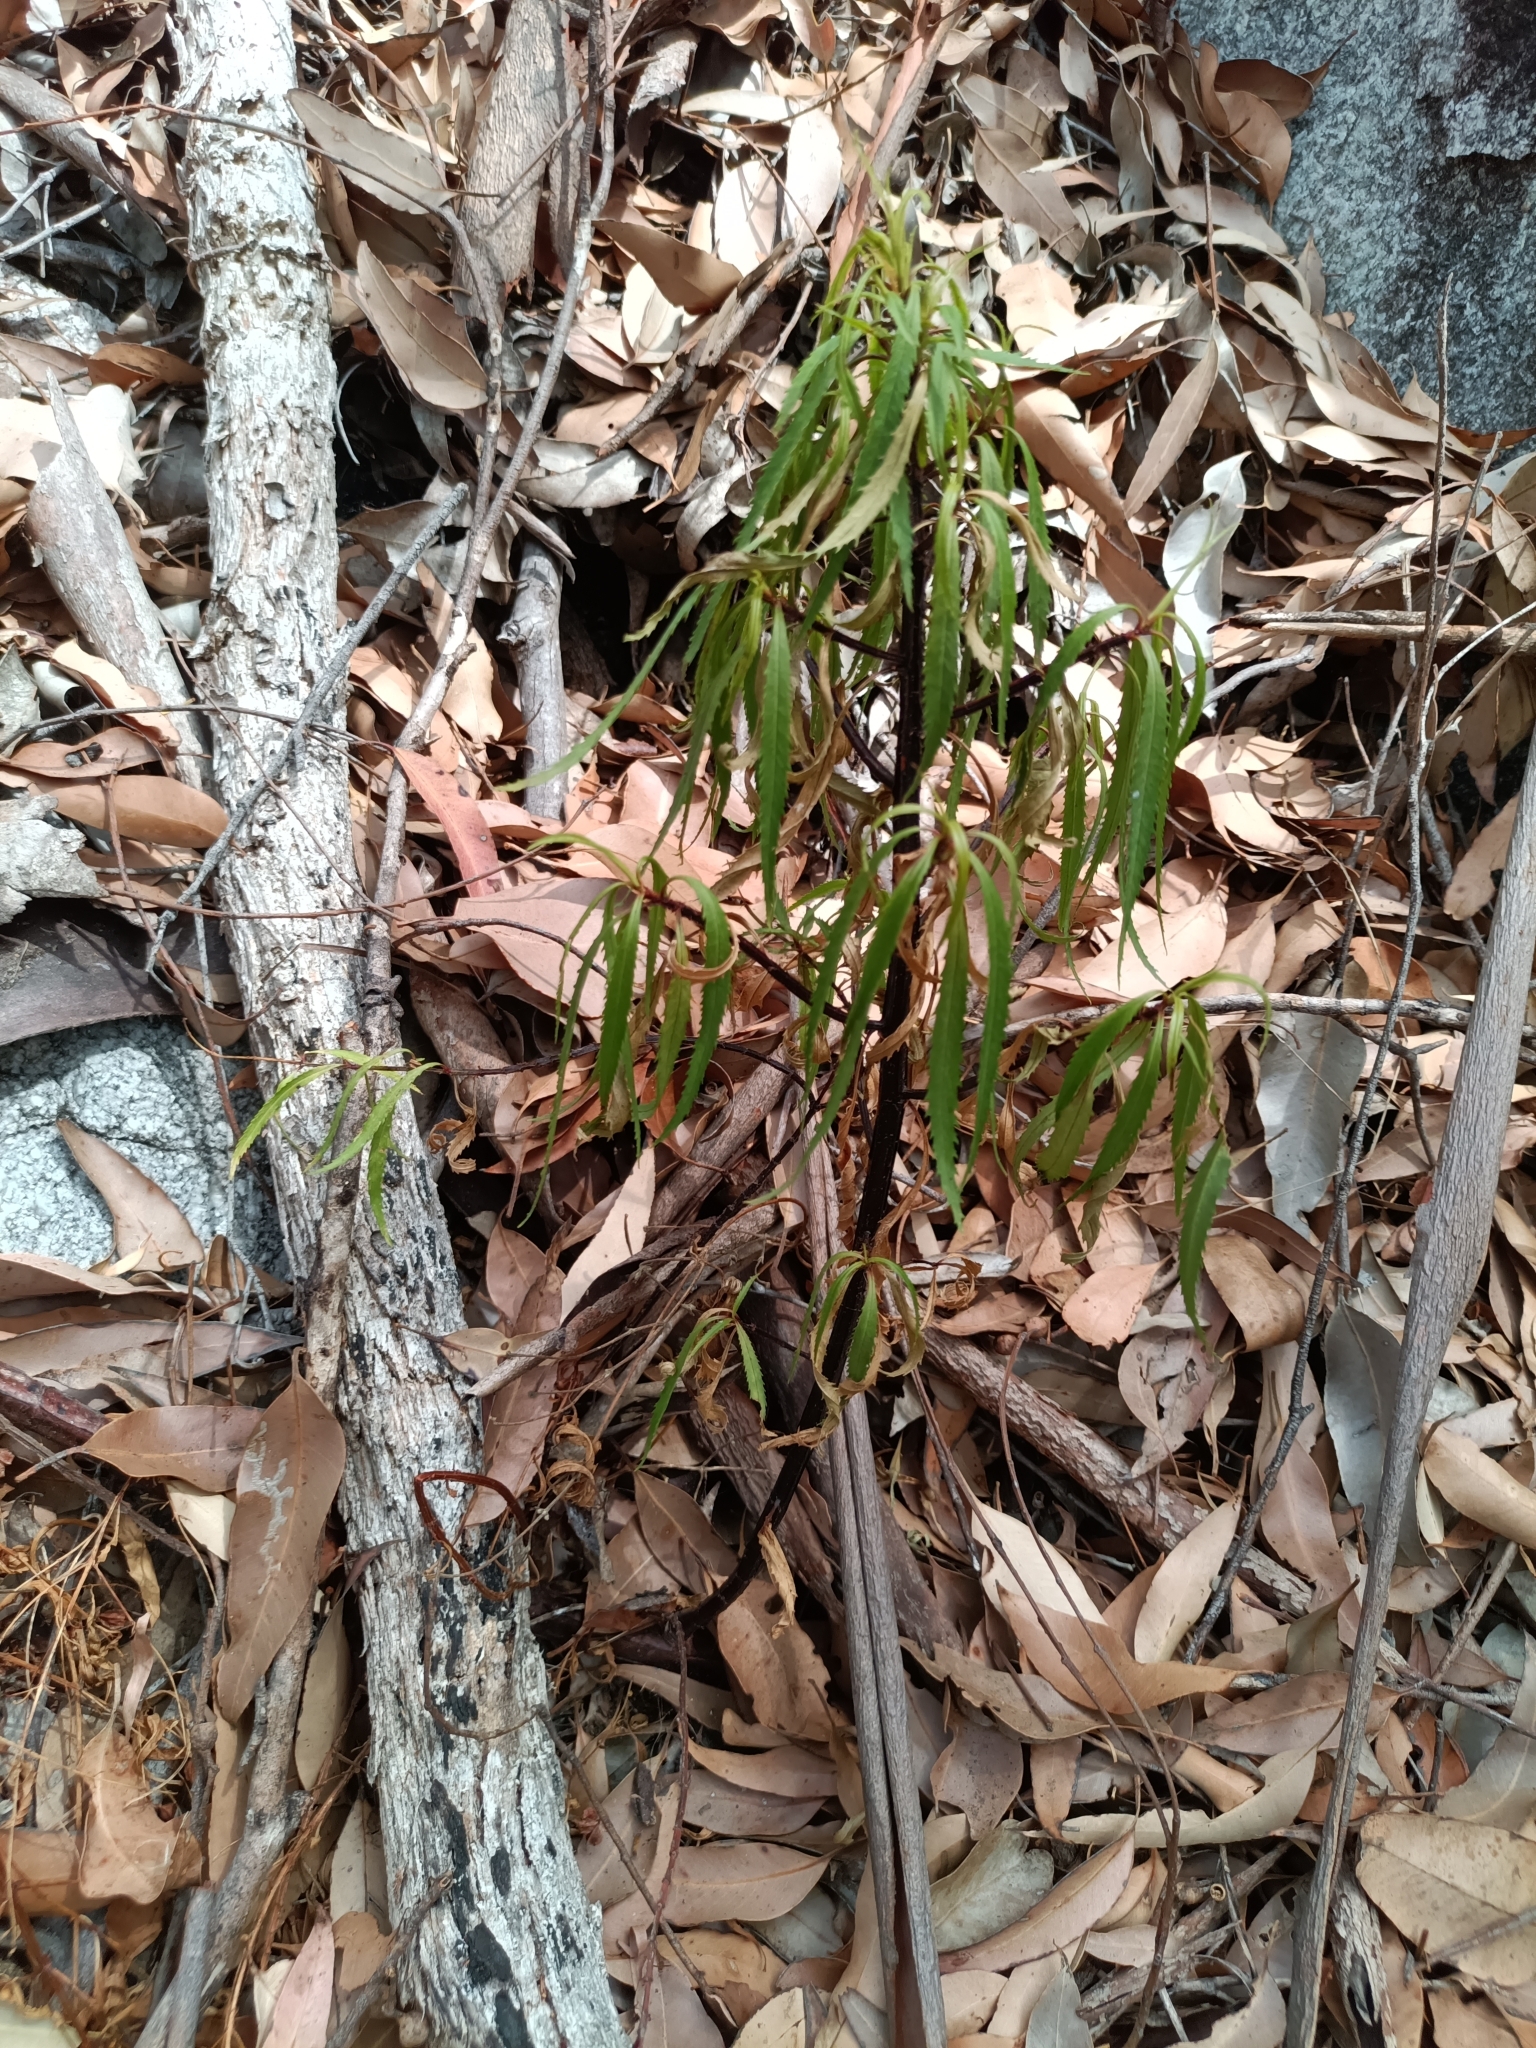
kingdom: Plantae
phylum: Tracheophyta
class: Magnoliopsida
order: Saxifragales
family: Haloragaceae
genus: Glischrocaryon
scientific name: Glischrocaryon racemosum
